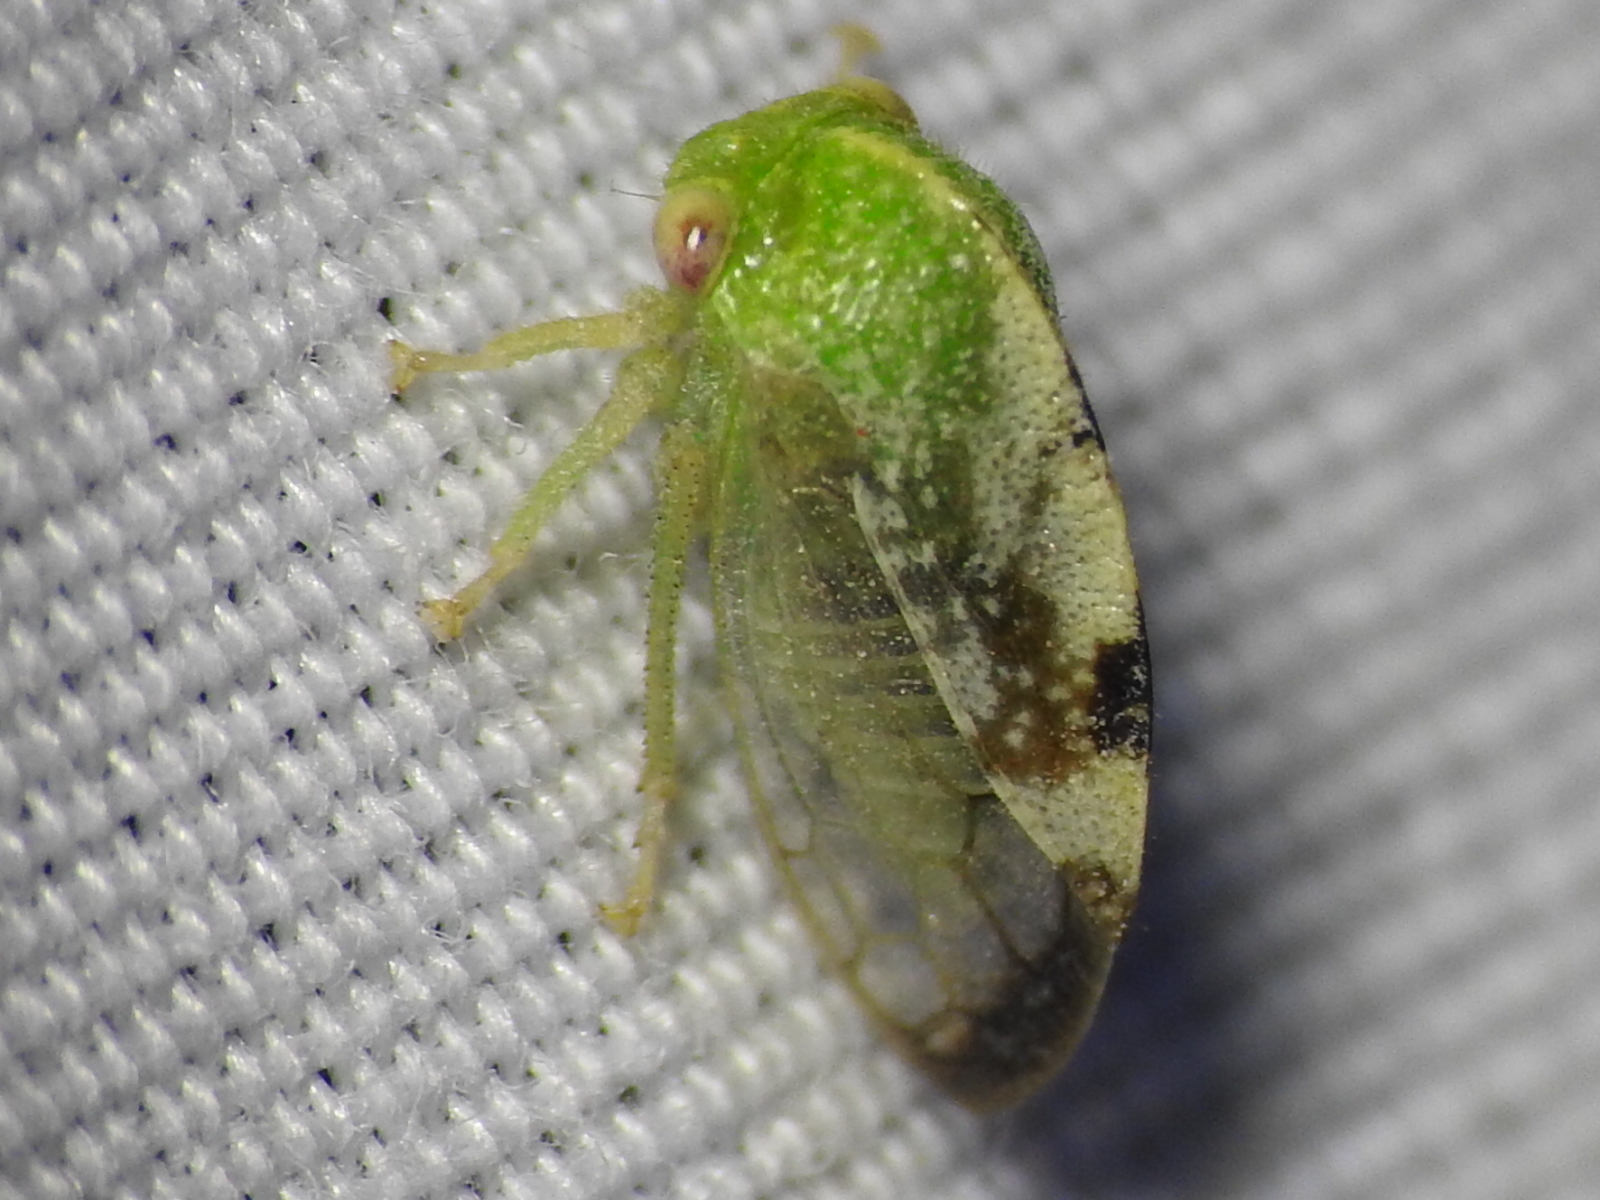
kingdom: Animalia
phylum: Arthropoda
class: Insecta
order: Hemiptera
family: Membracidae
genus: Cyrtolobus
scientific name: Cyrtolobus dixianus
